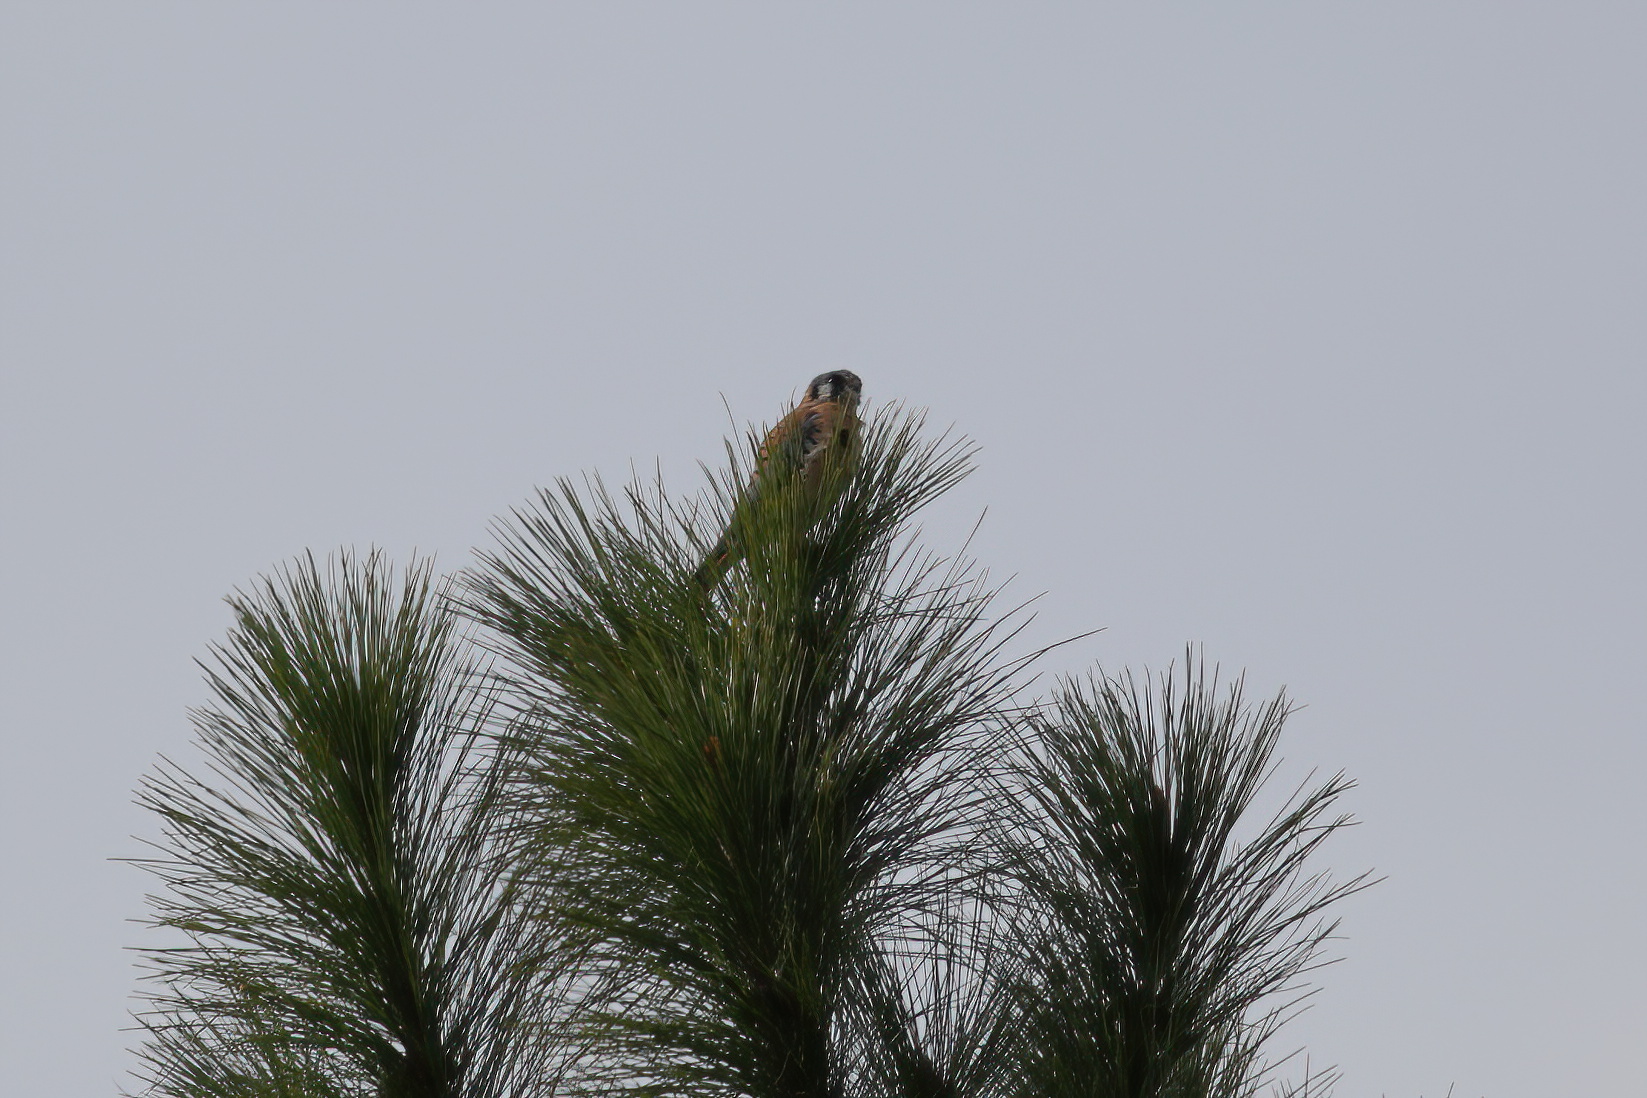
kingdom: Animalia
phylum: Chordata
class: Aves
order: Falconiformes
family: Falconidae
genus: Falco
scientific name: Falco sparverius
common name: American kestrel
